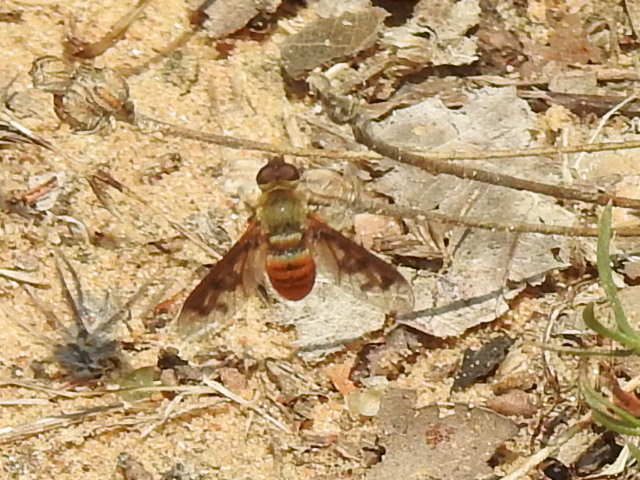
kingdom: Animalia
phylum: Arthropoda
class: Insecta
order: Diptera
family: Bombyliidae
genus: Neodiplocampta
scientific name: Neodiplocampta miranda
